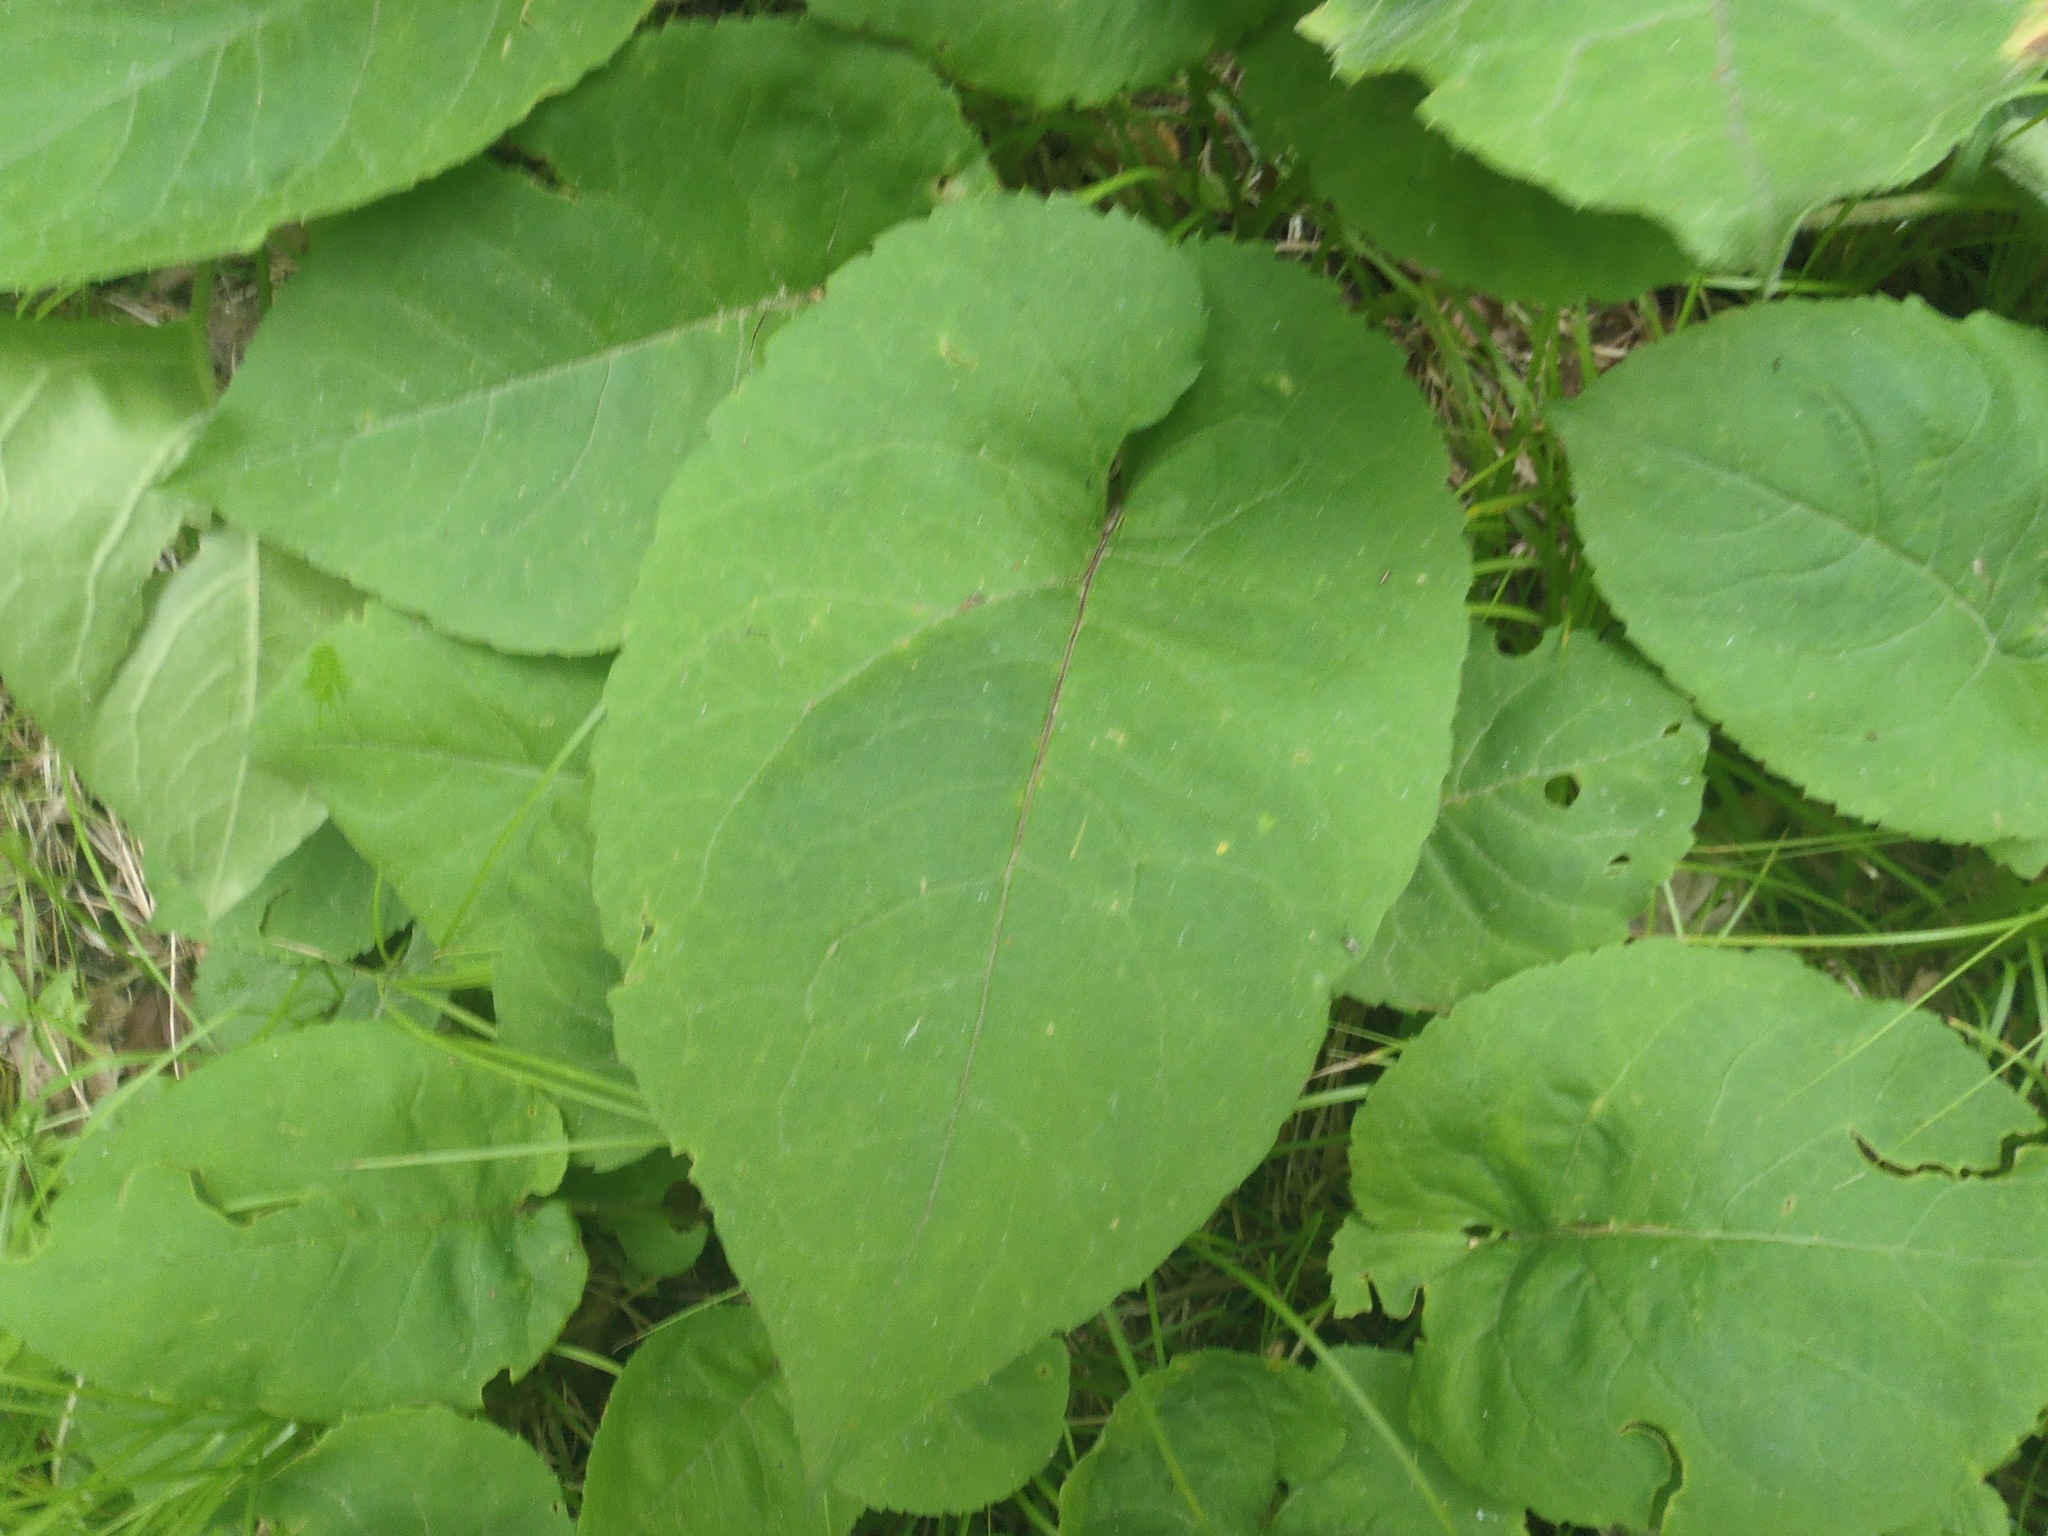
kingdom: Plantae
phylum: Tracheophyta
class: Magnoliopsida
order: Asterales
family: Asteraceae
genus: Eurybia
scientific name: Eurybia macrophylla
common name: Big-leaved aster
